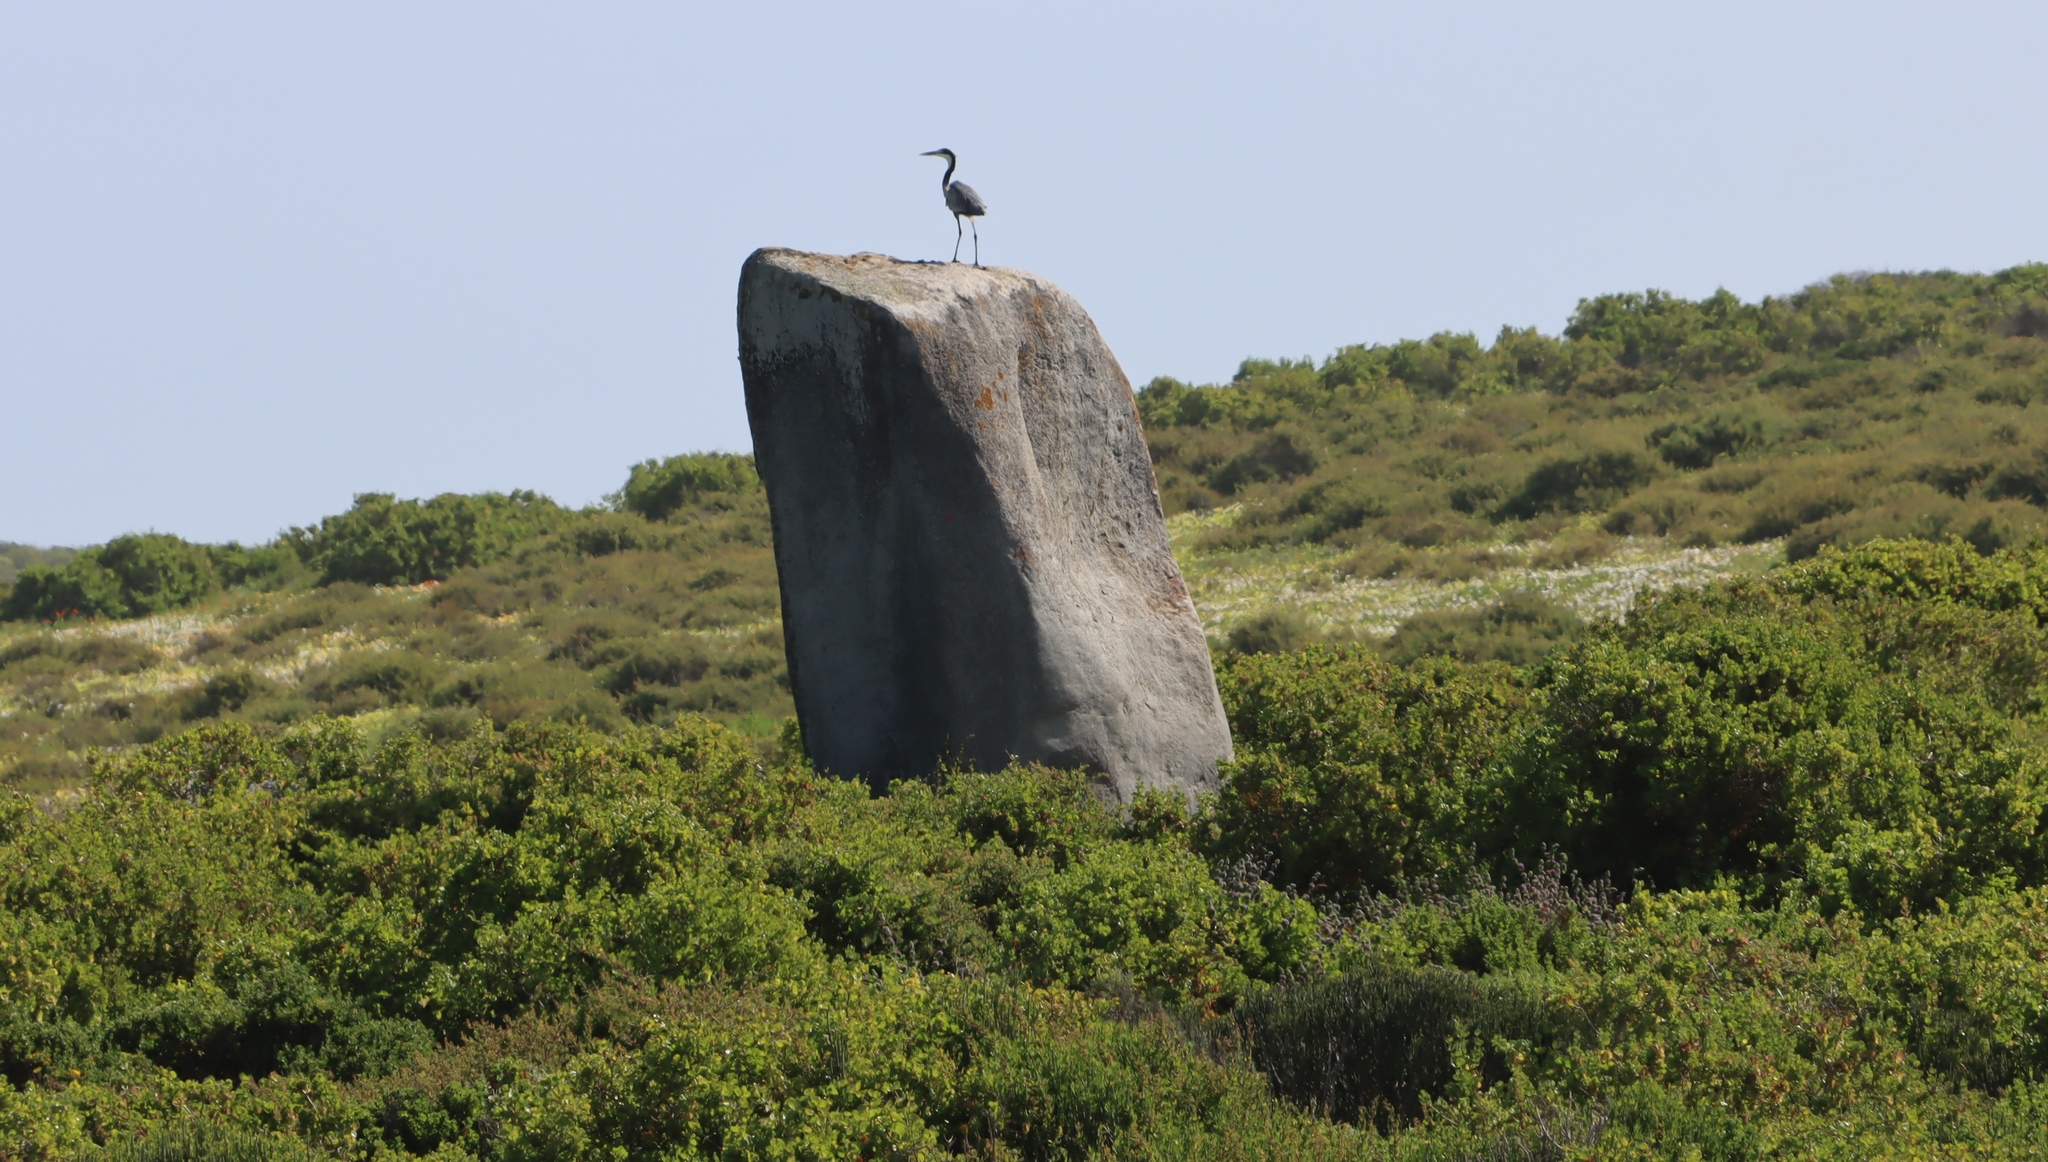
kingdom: Animalia
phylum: Chordata
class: Aves
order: Pelecaniformes
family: Ardeidae
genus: Ardea
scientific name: Ardea melanocephala
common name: Black-headed heron
